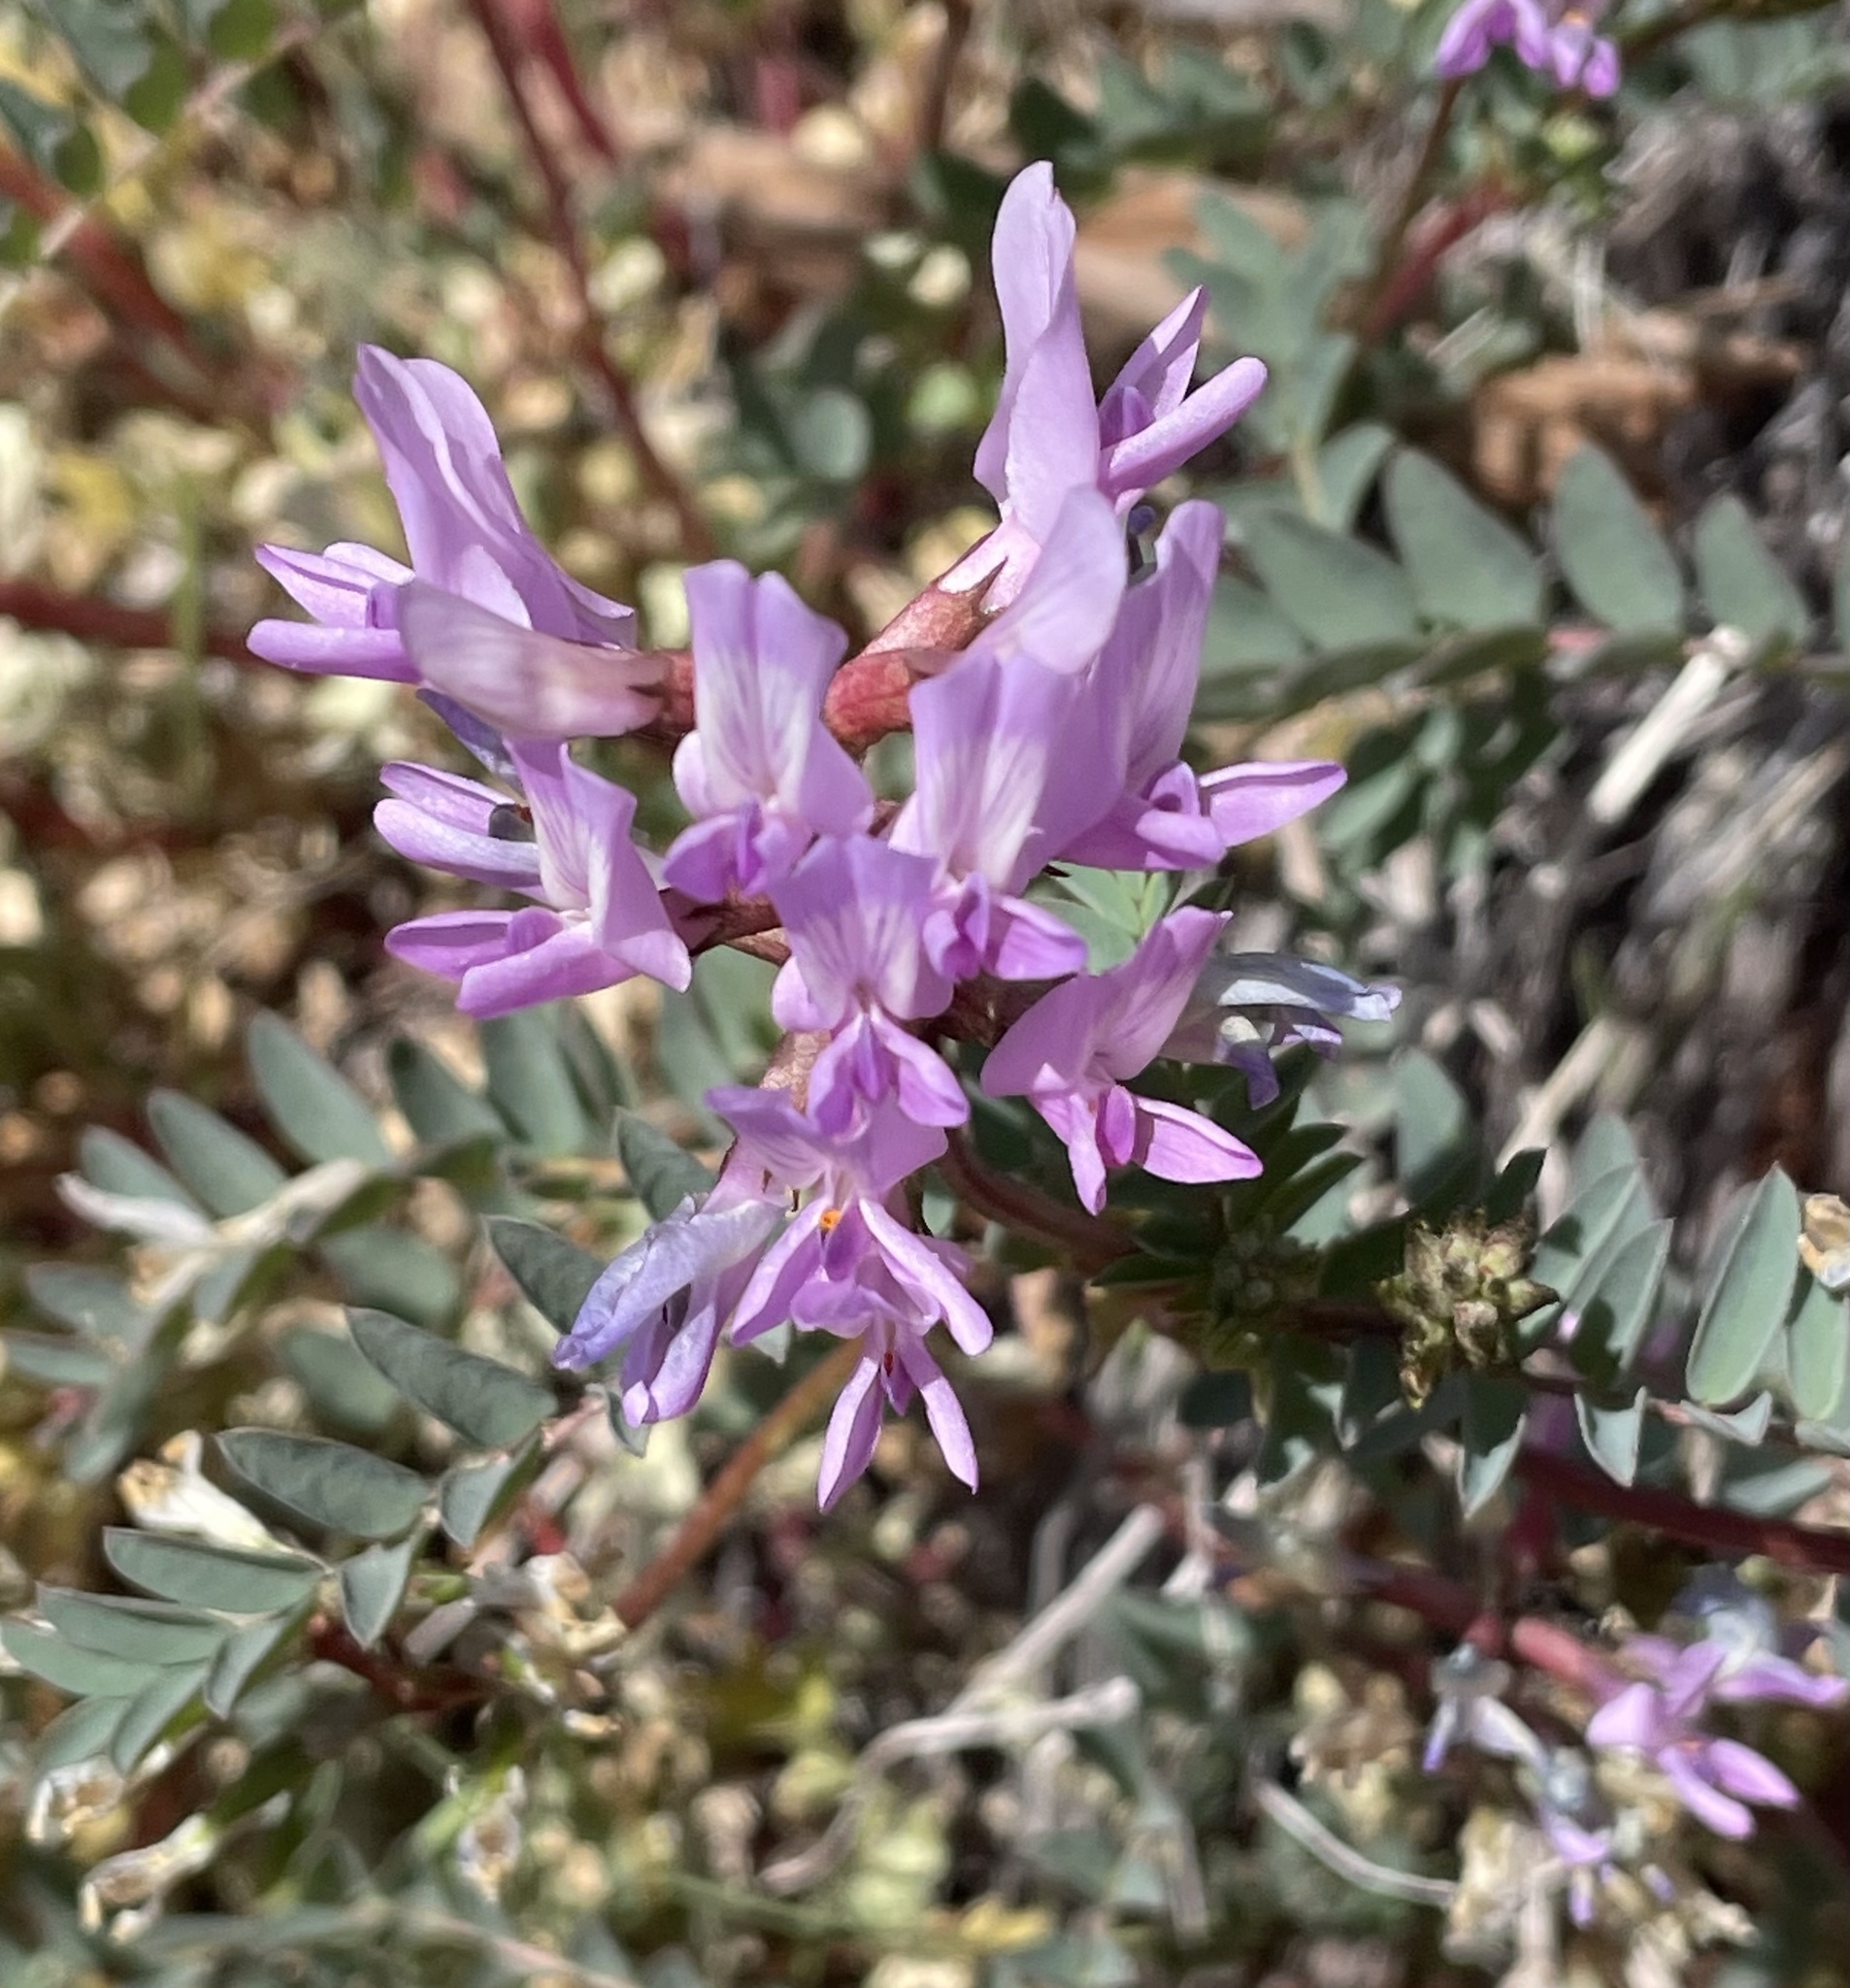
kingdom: Plantae
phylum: Tracheophyta
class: Magnoliopsida
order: Fabales
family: Fabaceae
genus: Astragalus
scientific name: Astragalus lentiginosus
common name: Freckled milkvetch
